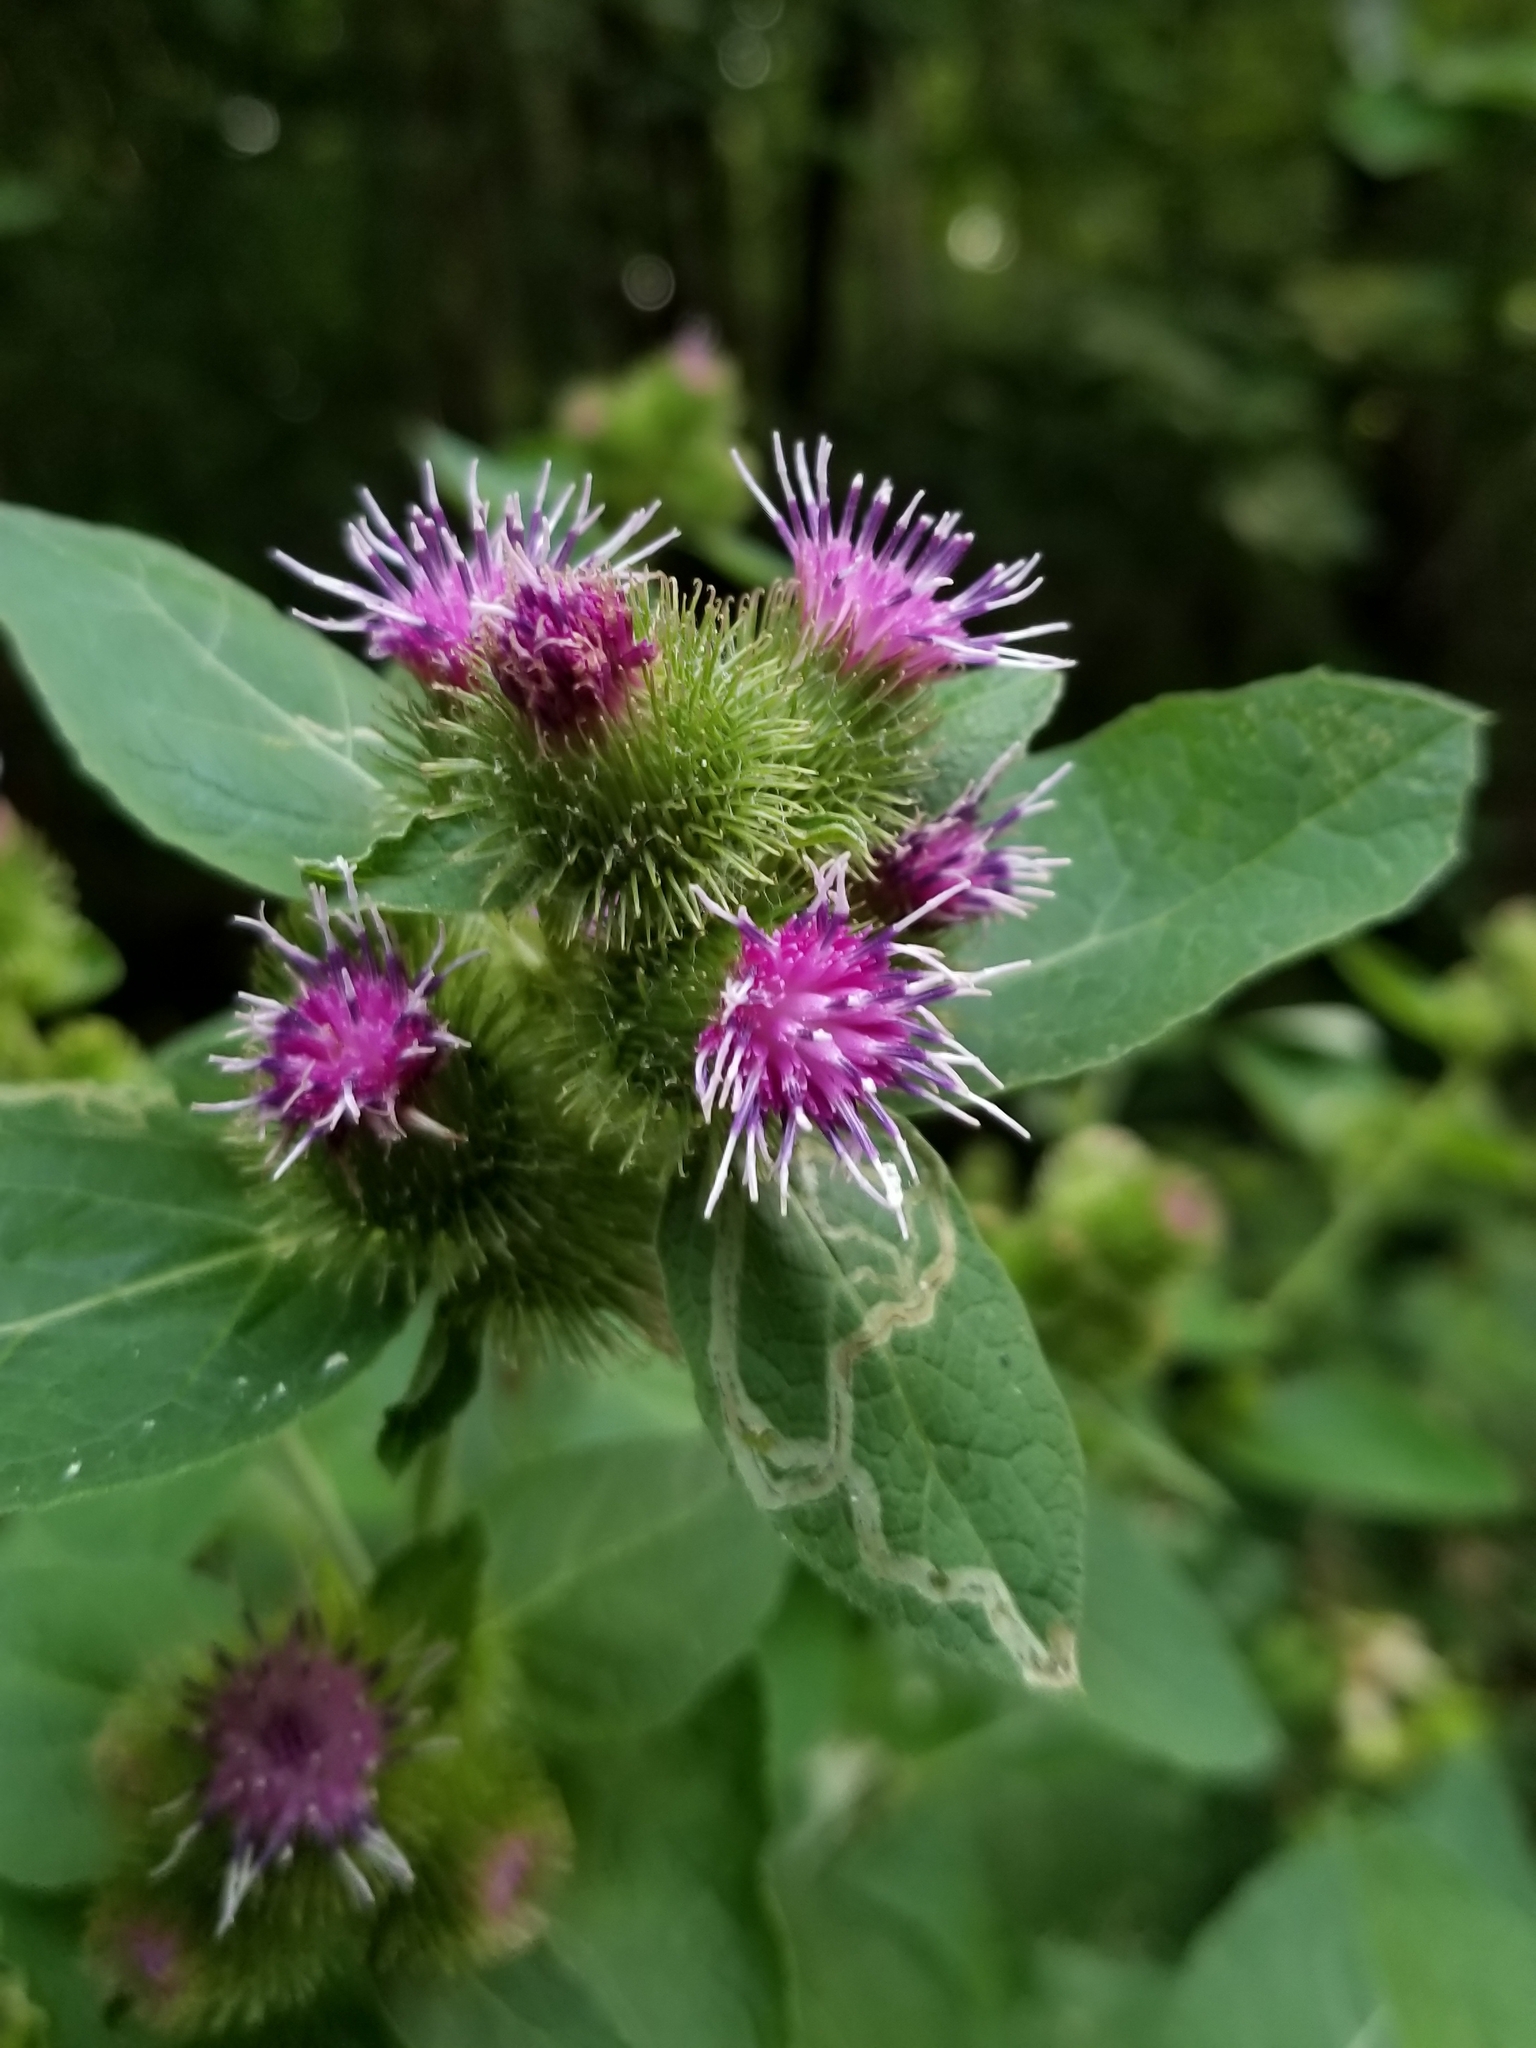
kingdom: Plantae
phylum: Tracheophyta
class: Magnoliopsida
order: Asterales
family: Asteraceae
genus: Arctium
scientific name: Arctium minus
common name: Lesser burdock
